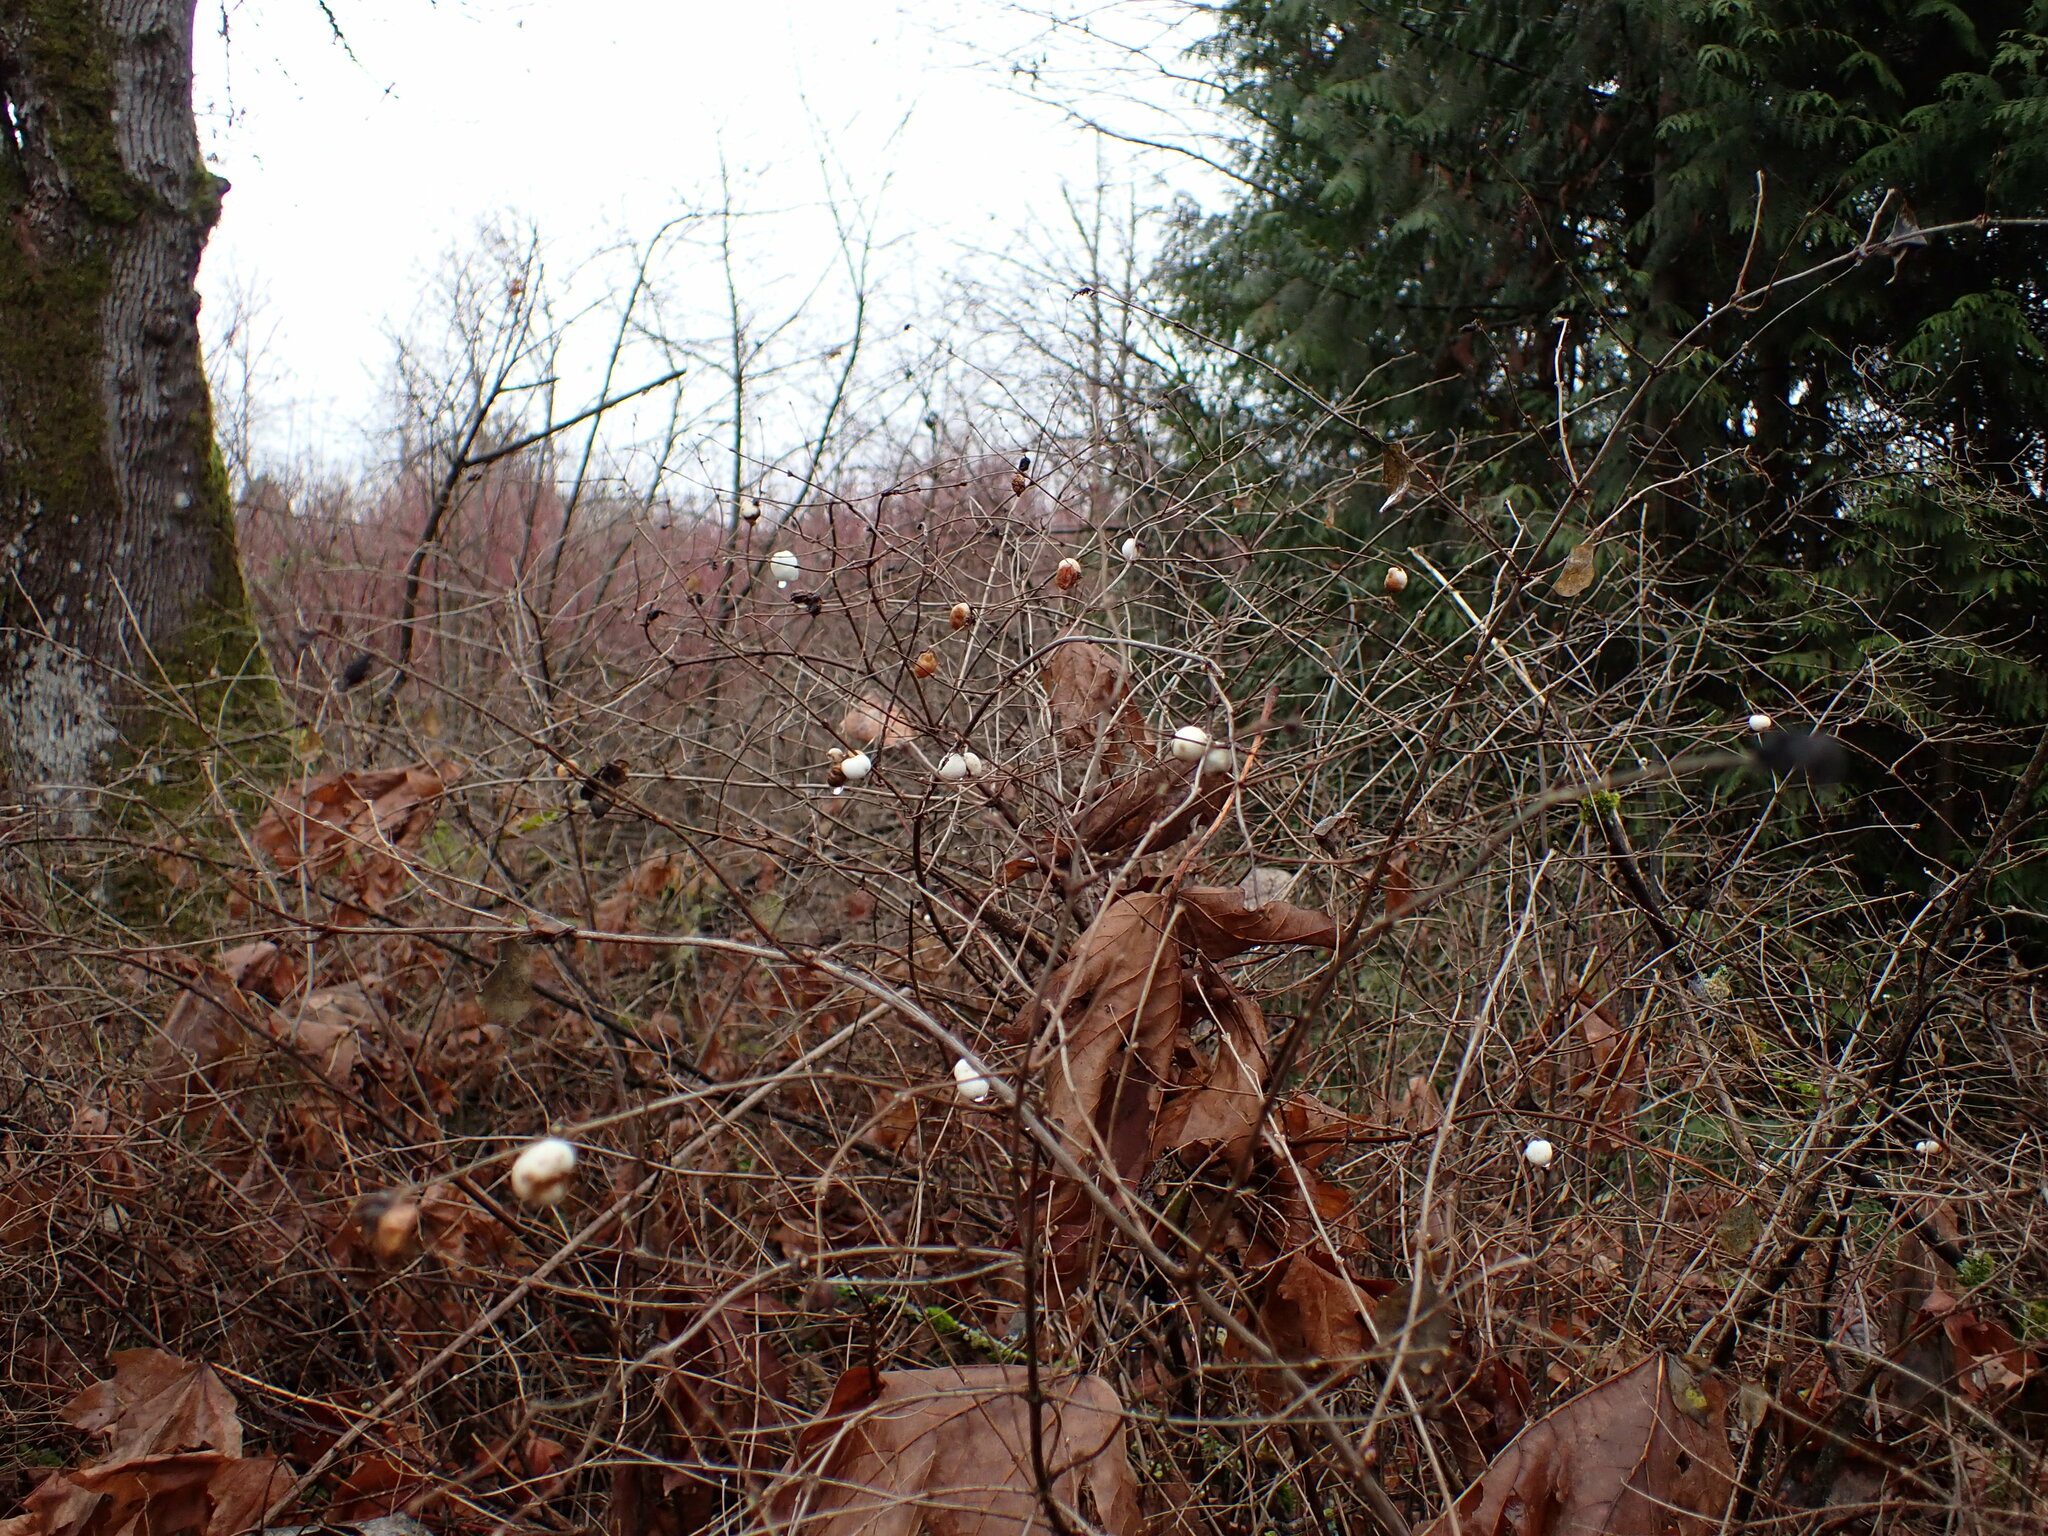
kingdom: Plantae
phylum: Tracheophyta
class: Magnoliopsida
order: Dipsacales
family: Caprifoliaceae
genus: Symphoricarpos
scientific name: Symphoricarpos albus
